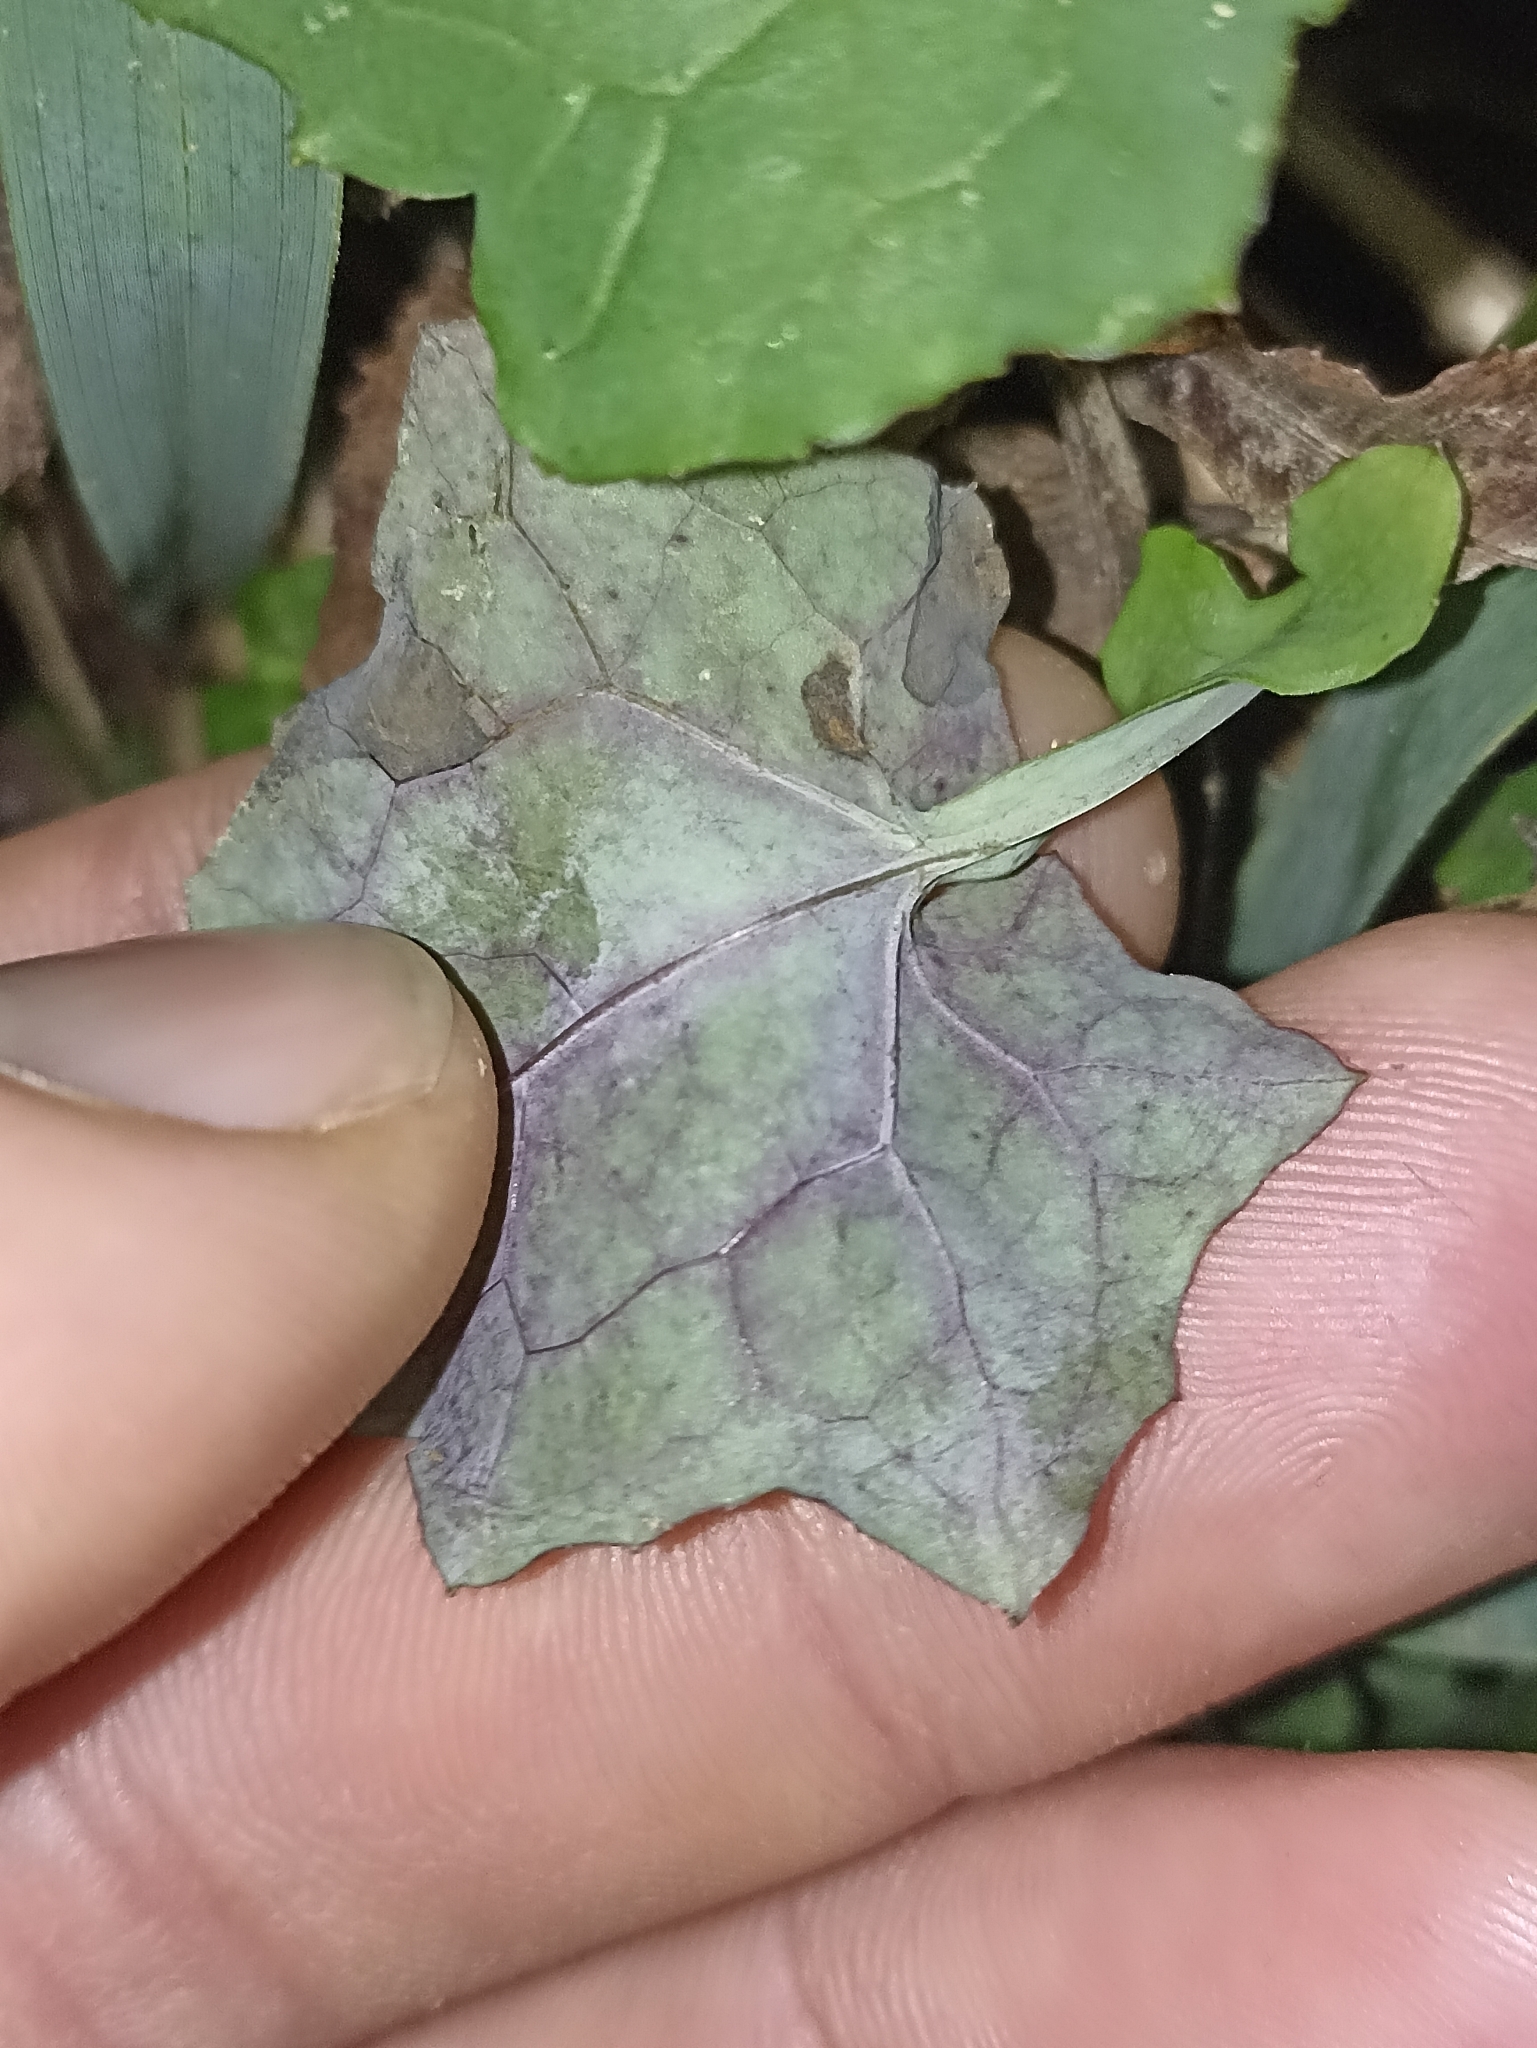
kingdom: Plantae
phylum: Tracheophyta
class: Magnoliopsida
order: Asterales
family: Asteraceae
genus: Mycelis
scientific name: Mycelis muralis
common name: Wall lettuce
